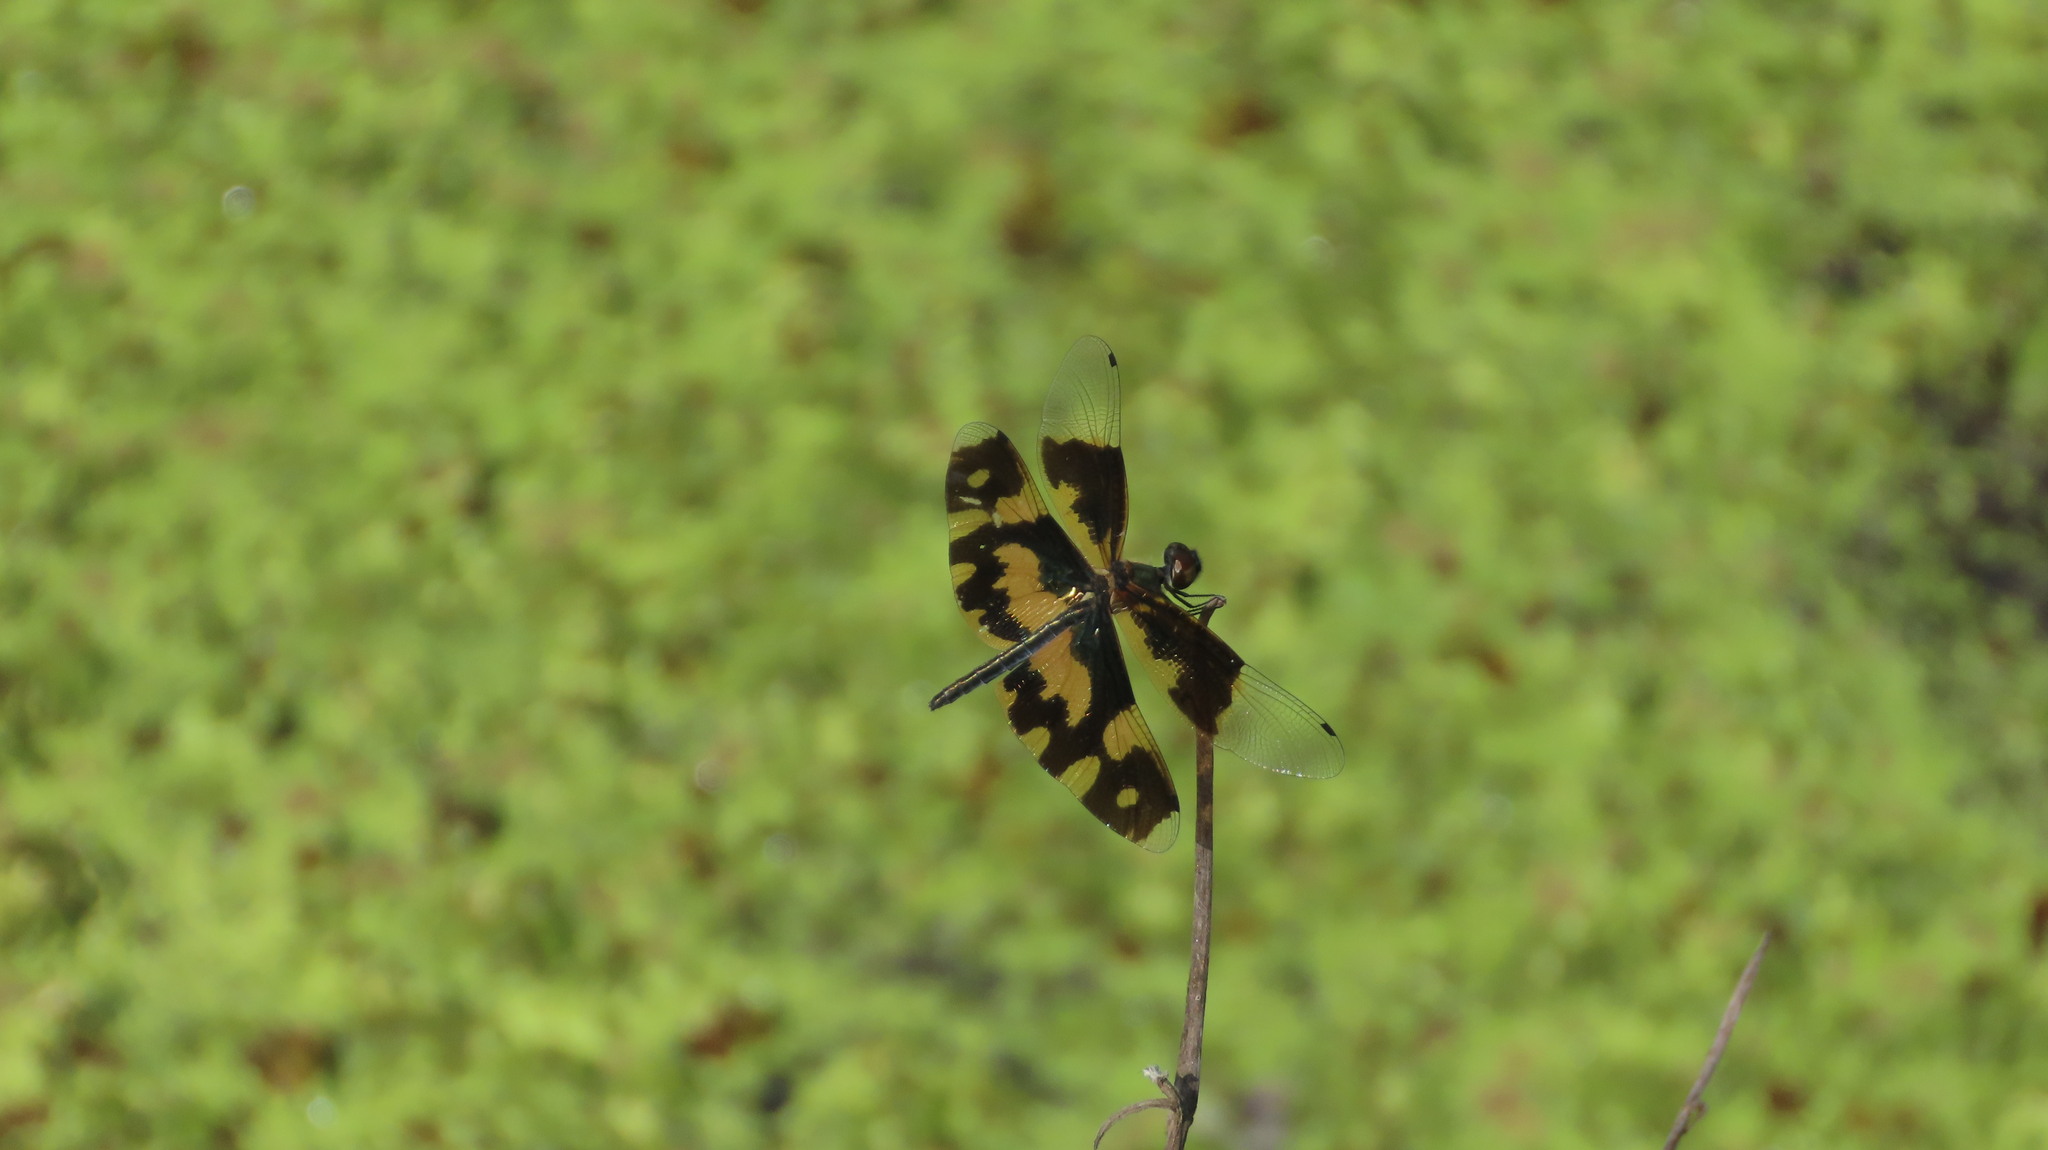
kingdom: Animalia
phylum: Arthropoda
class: Insecta
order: Odonata
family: Libellulidae
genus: Rhyothemis
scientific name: Rhyothemis variegata
